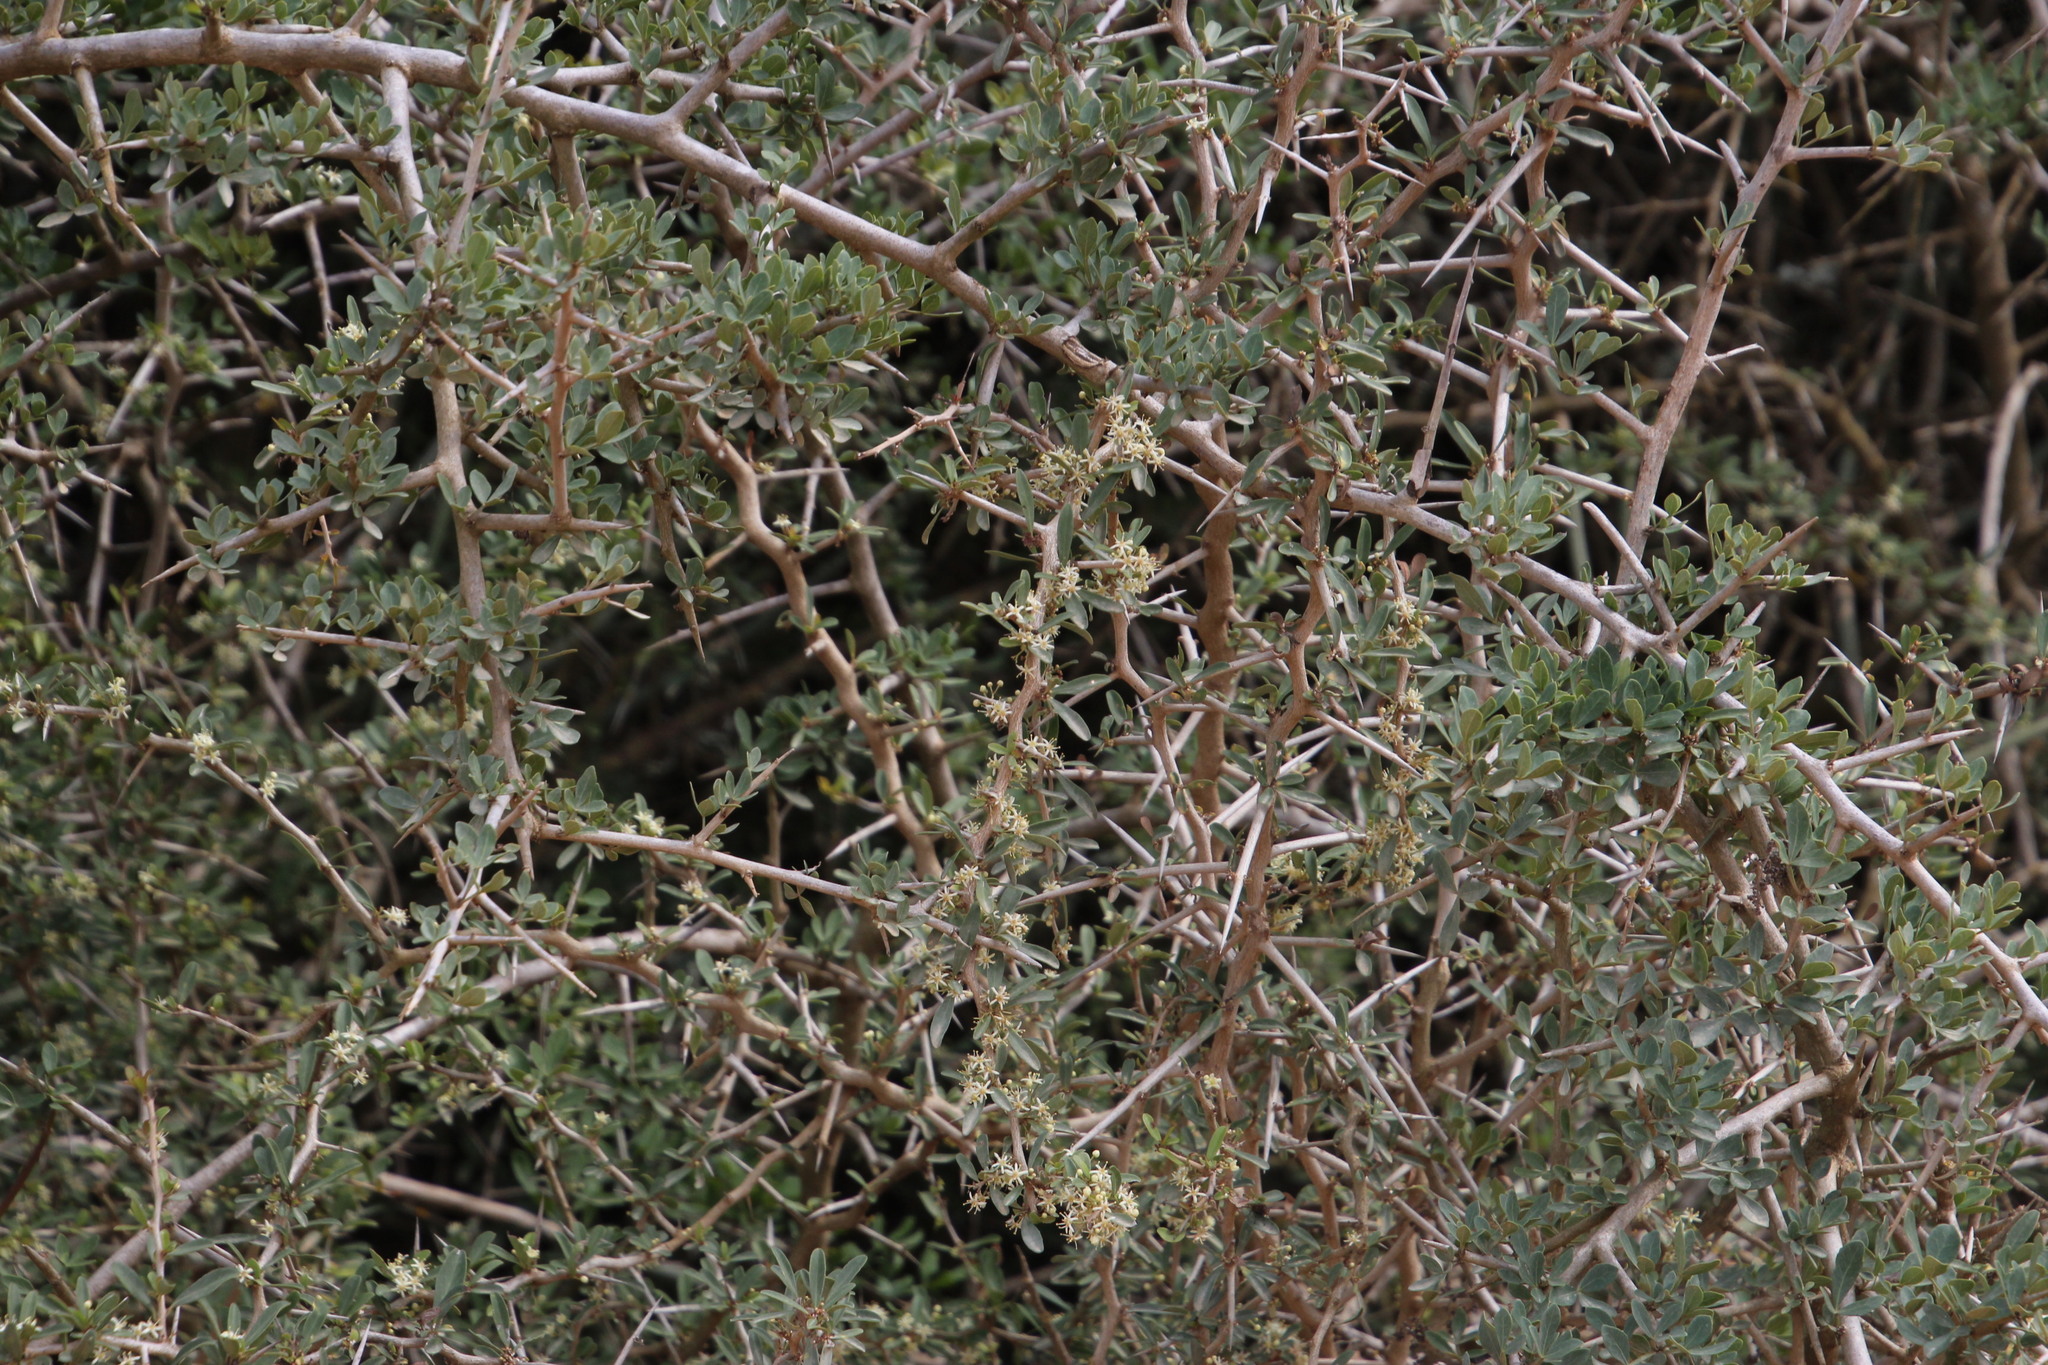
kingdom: Plantae
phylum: Tracheophyta
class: Magnoliopsida
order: Celastrales
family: Celastraceae
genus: Gymnosporia
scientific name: Gymnosporia polyacantha
